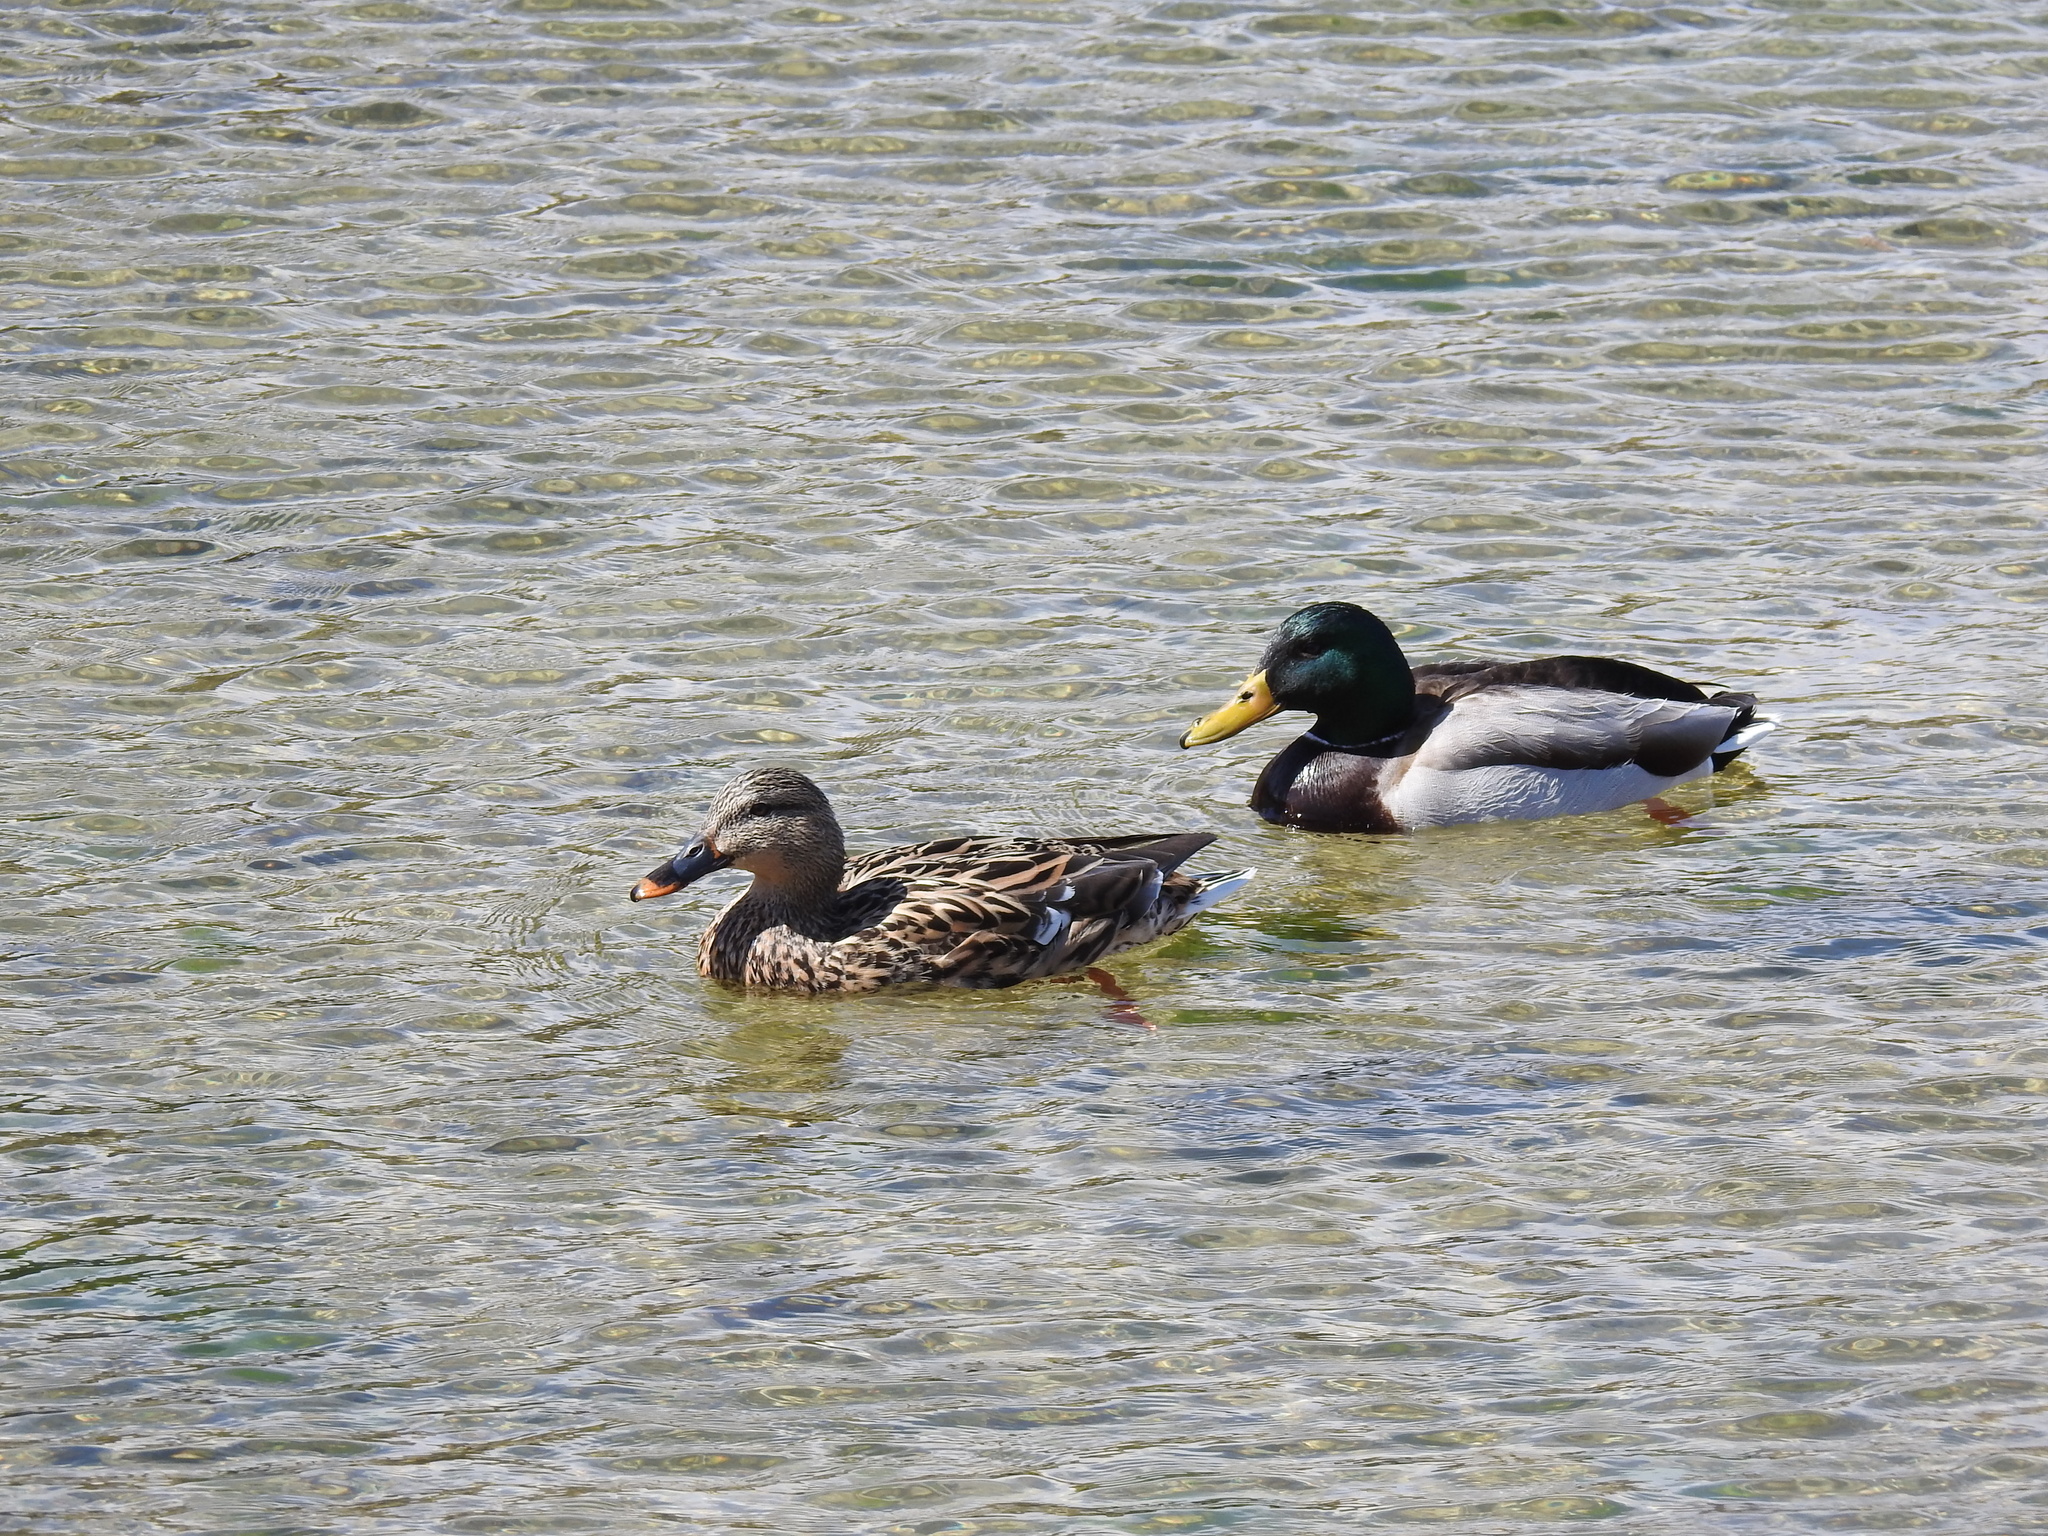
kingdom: Animalia
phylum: Chordata
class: Aves
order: Anseriformes
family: Anatidae
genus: Anas
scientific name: Anas platyrhynchos
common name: Mallard
